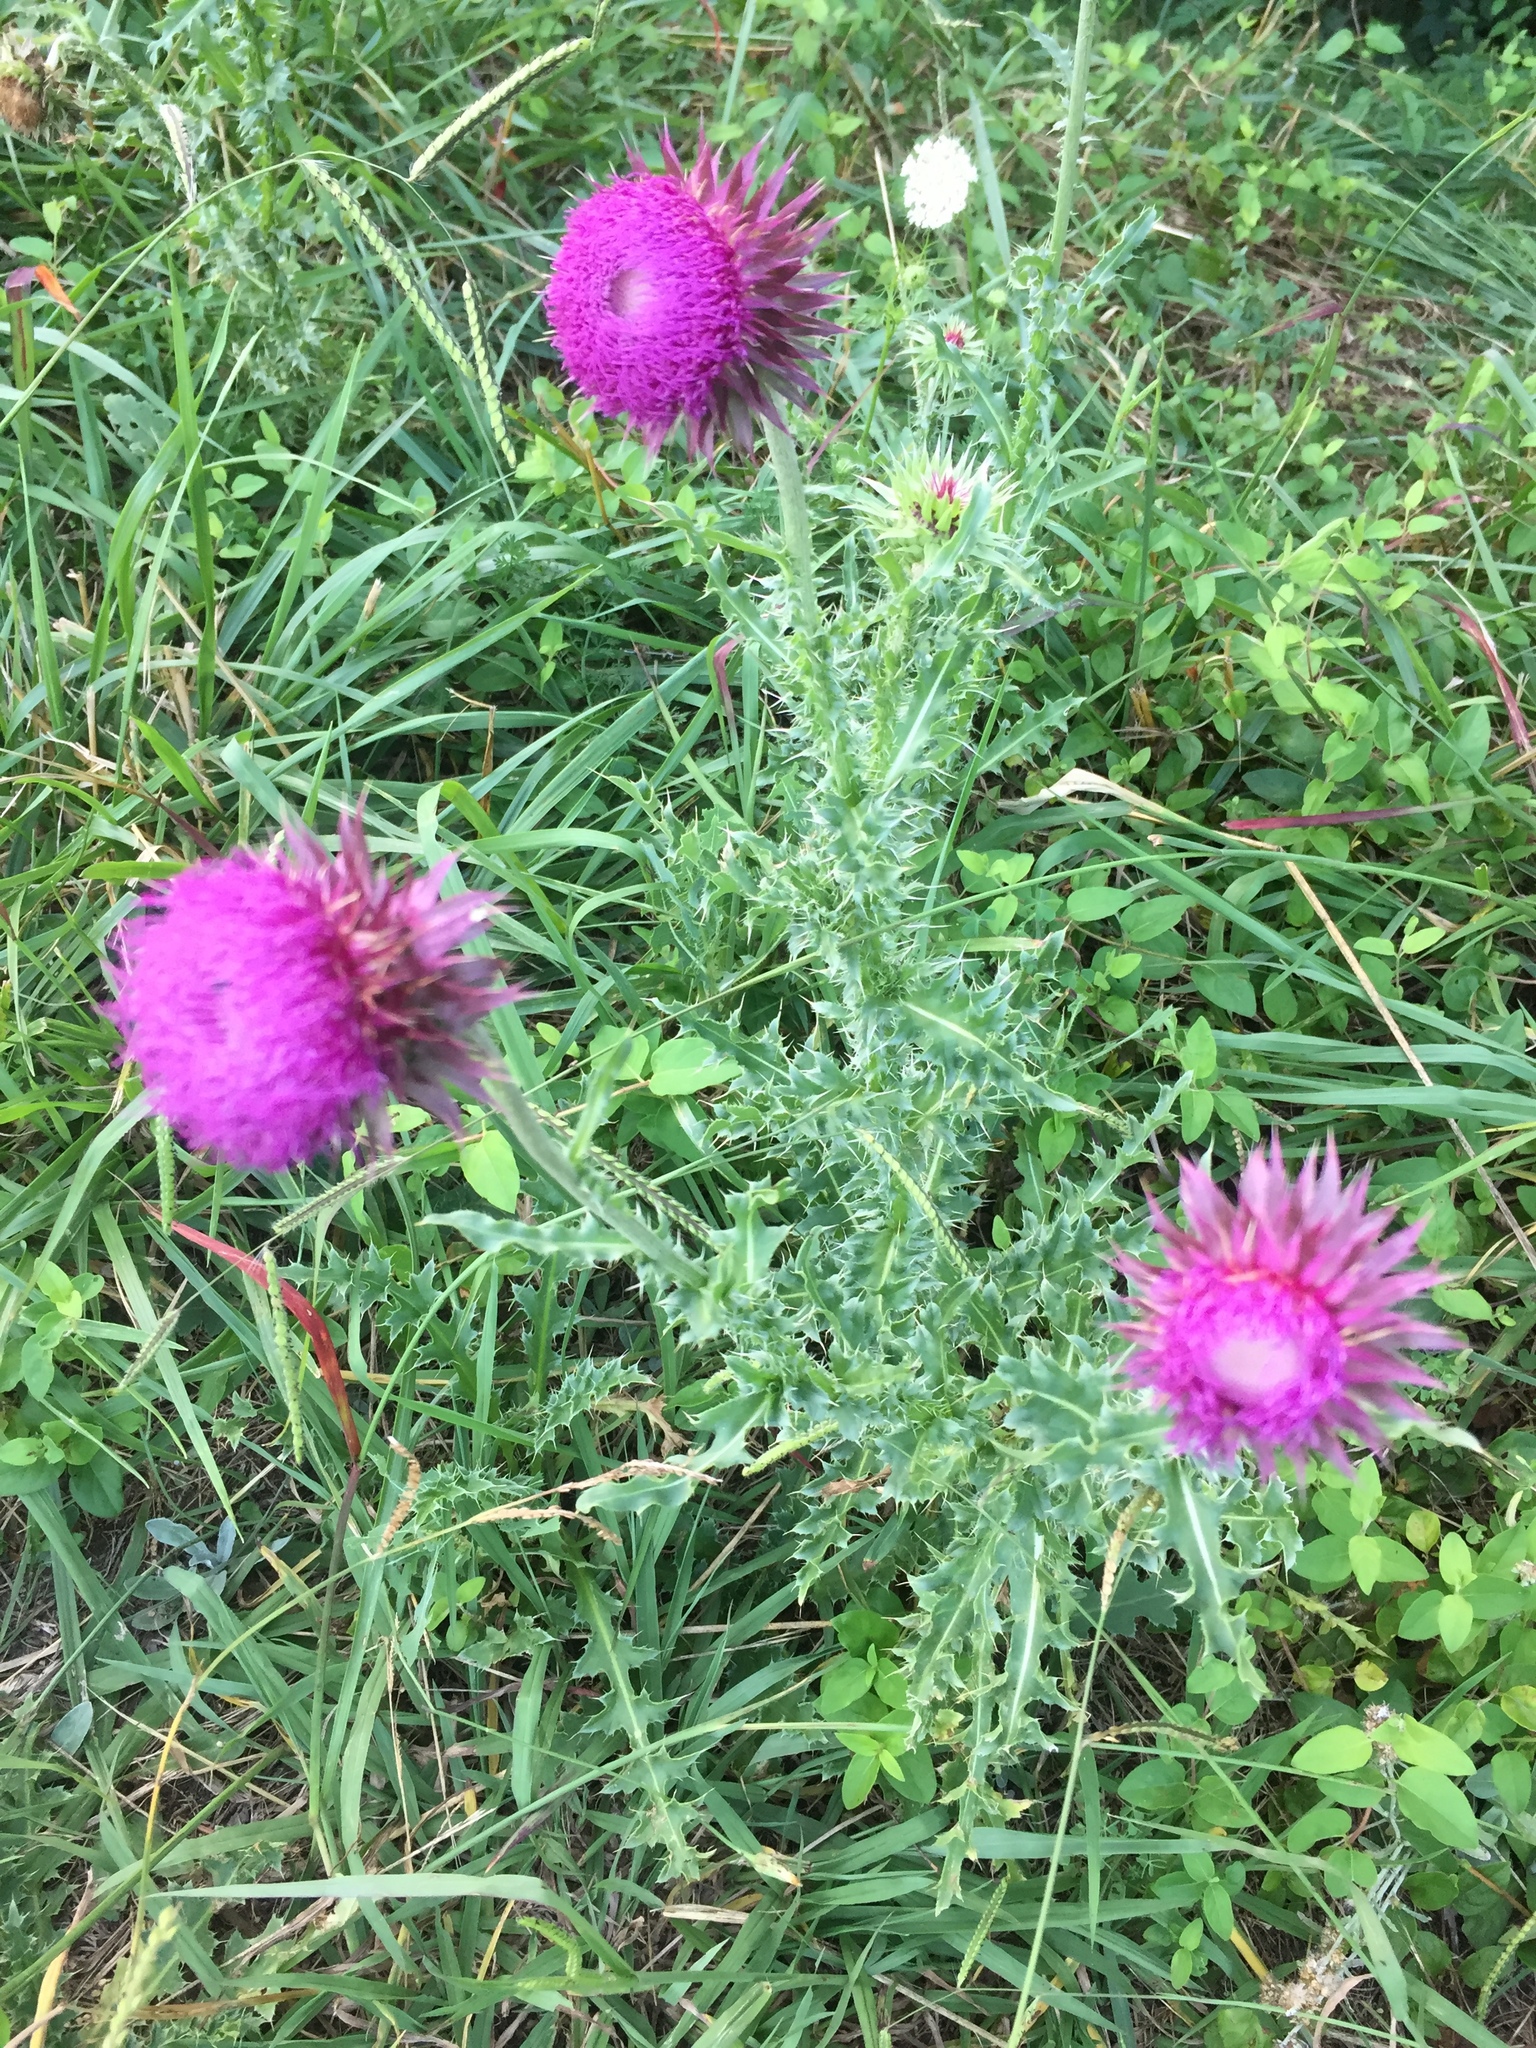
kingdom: Plantae
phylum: Tracheophyta
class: Magnoliopsida
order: Asterales
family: Asteraceae
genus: Carduus
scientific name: Carduus nutans
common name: Musk thistle
